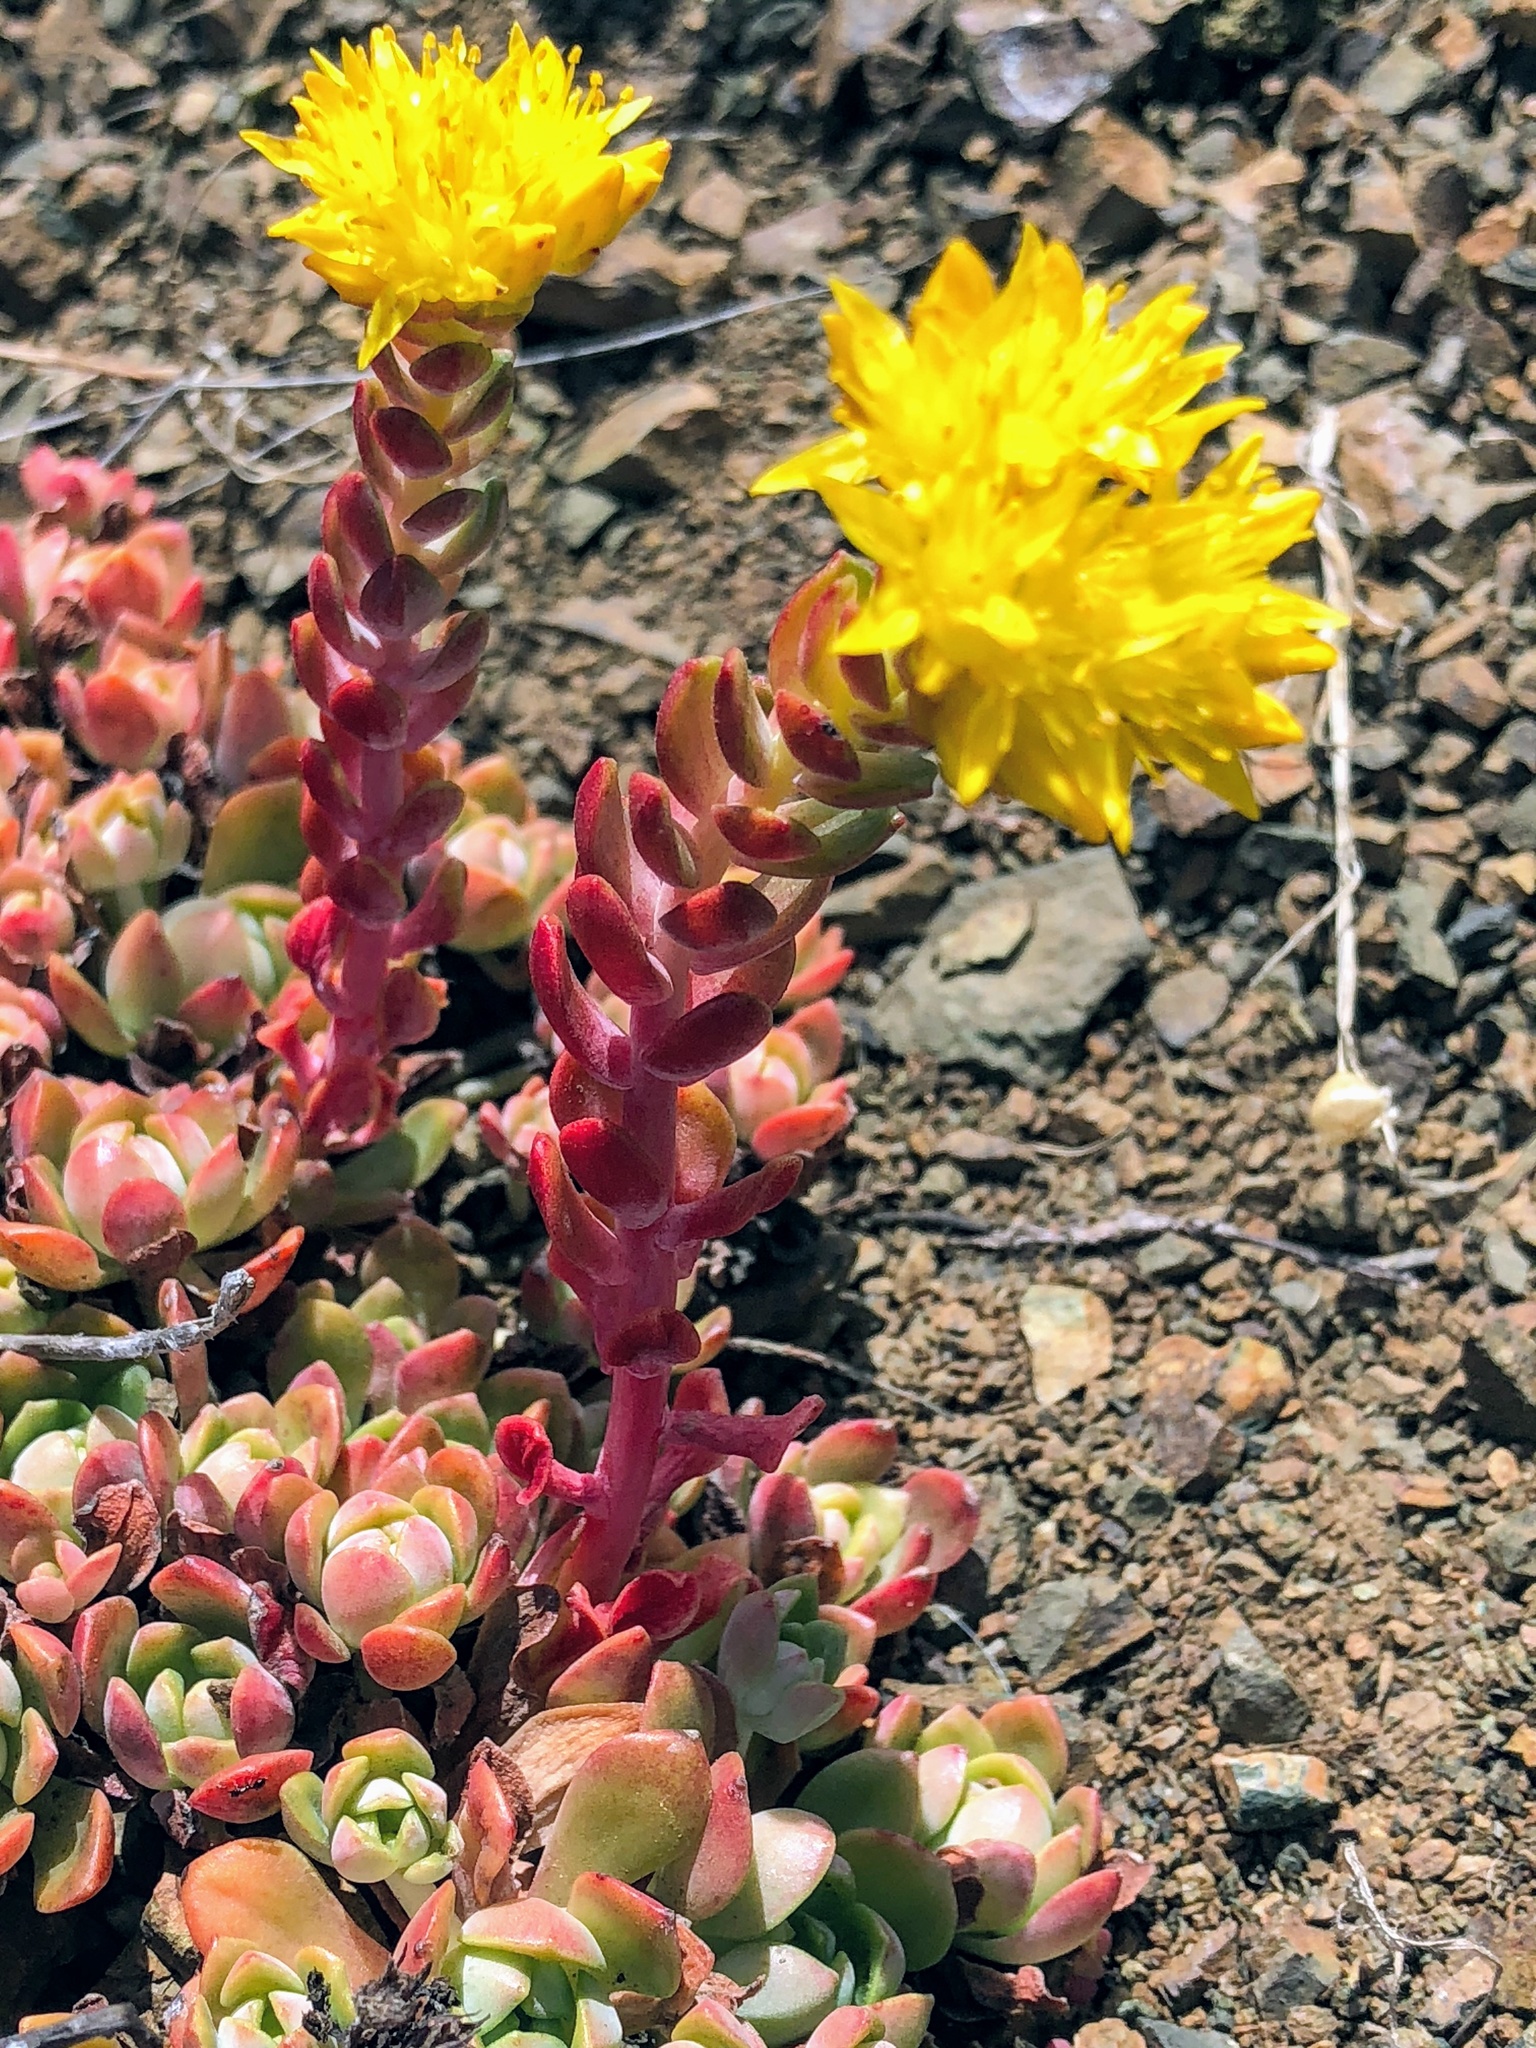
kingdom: Plantae
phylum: Tracheophyta
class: Magnoliopsida
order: Saxifragales
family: Crassulaceae
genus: Sedum
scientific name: Sedum spathulifolium
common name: Colorado stonecrop
